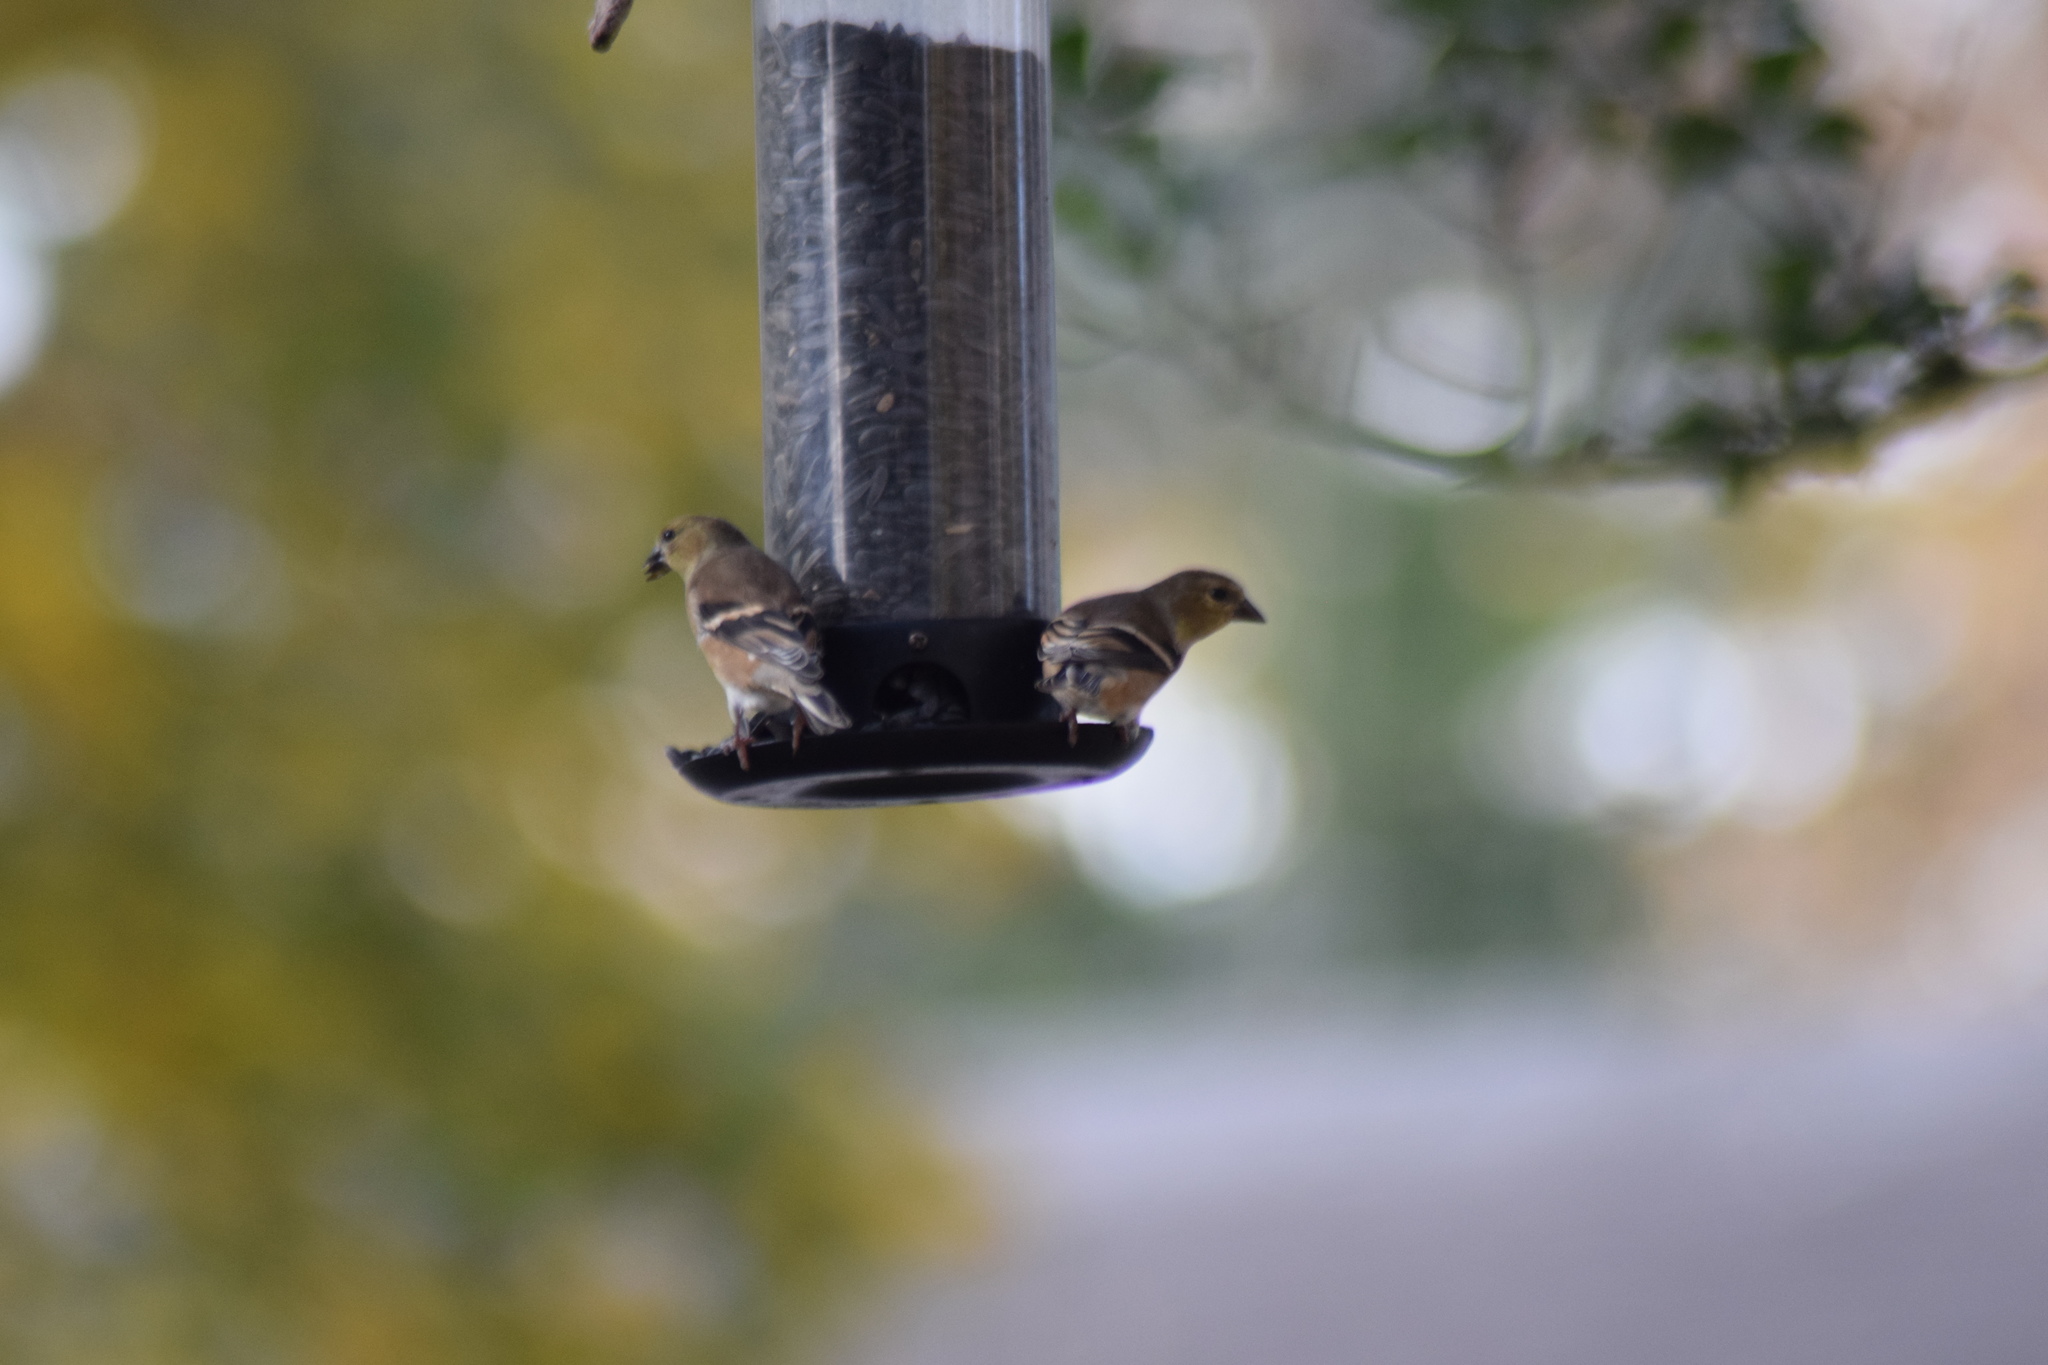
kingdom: Animalia
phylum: Chordata
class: Aves
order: Passeriformes
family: Fringillidae
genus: Spinus
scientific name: Spinus tristis
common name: American goldfinch
